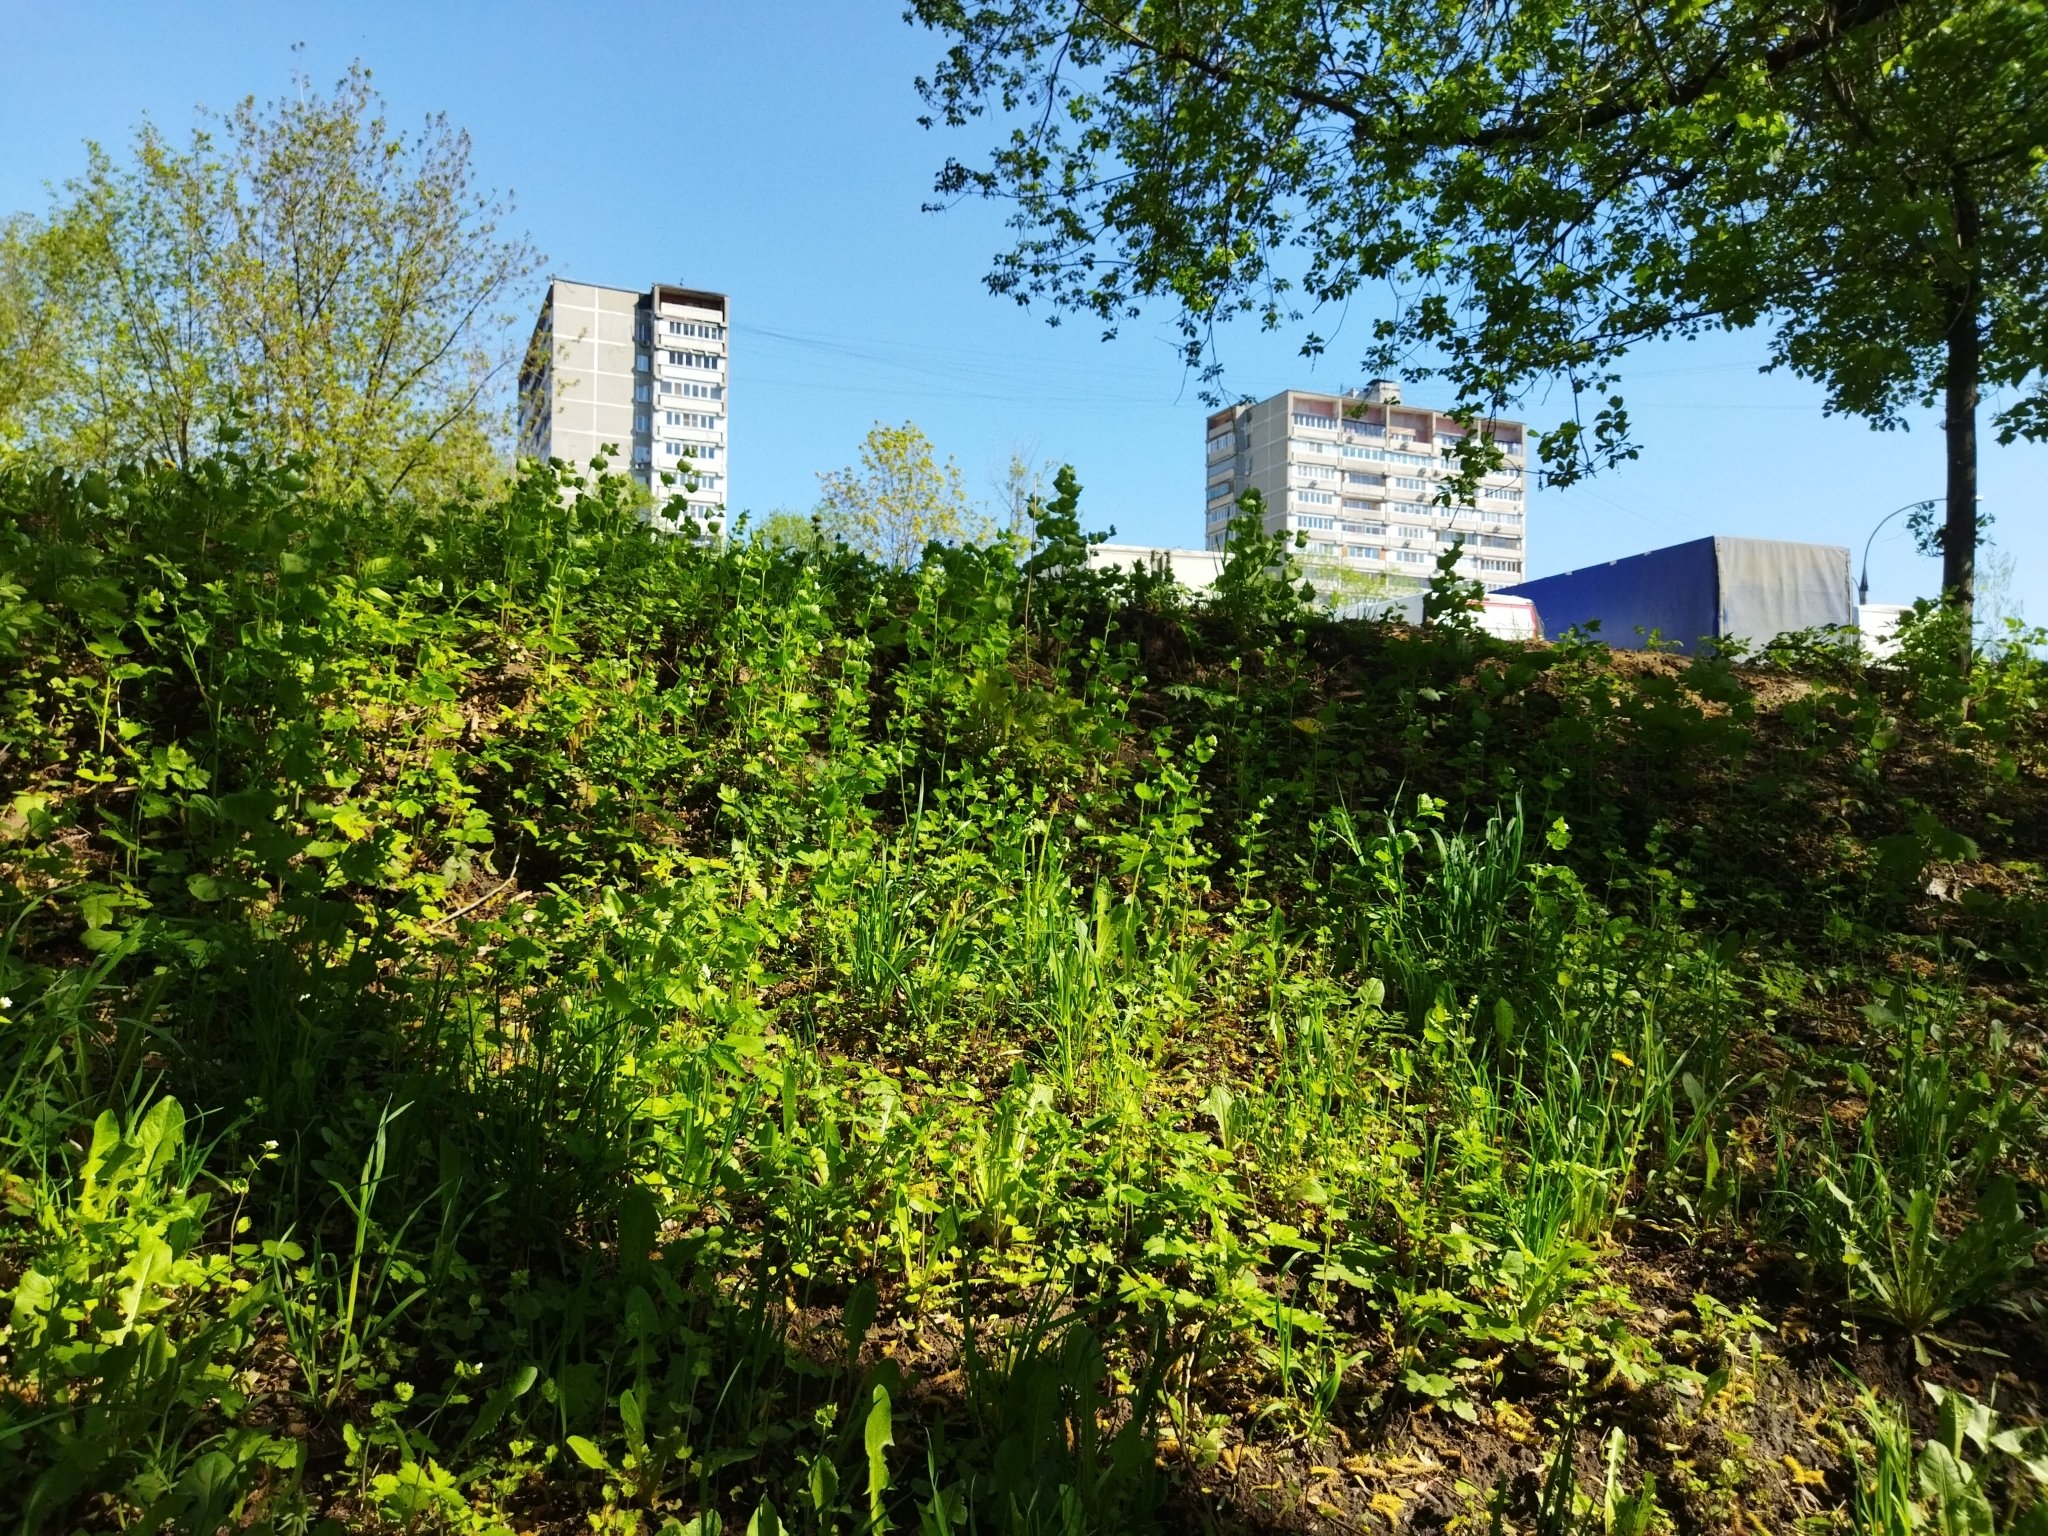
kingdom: Plantae
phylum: Tracheophyta
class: Magnoliopsida
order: Brassicales
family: Brassicaceae
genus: Alliaria
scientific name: Alliaria petiolata
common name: Garlic mustard
